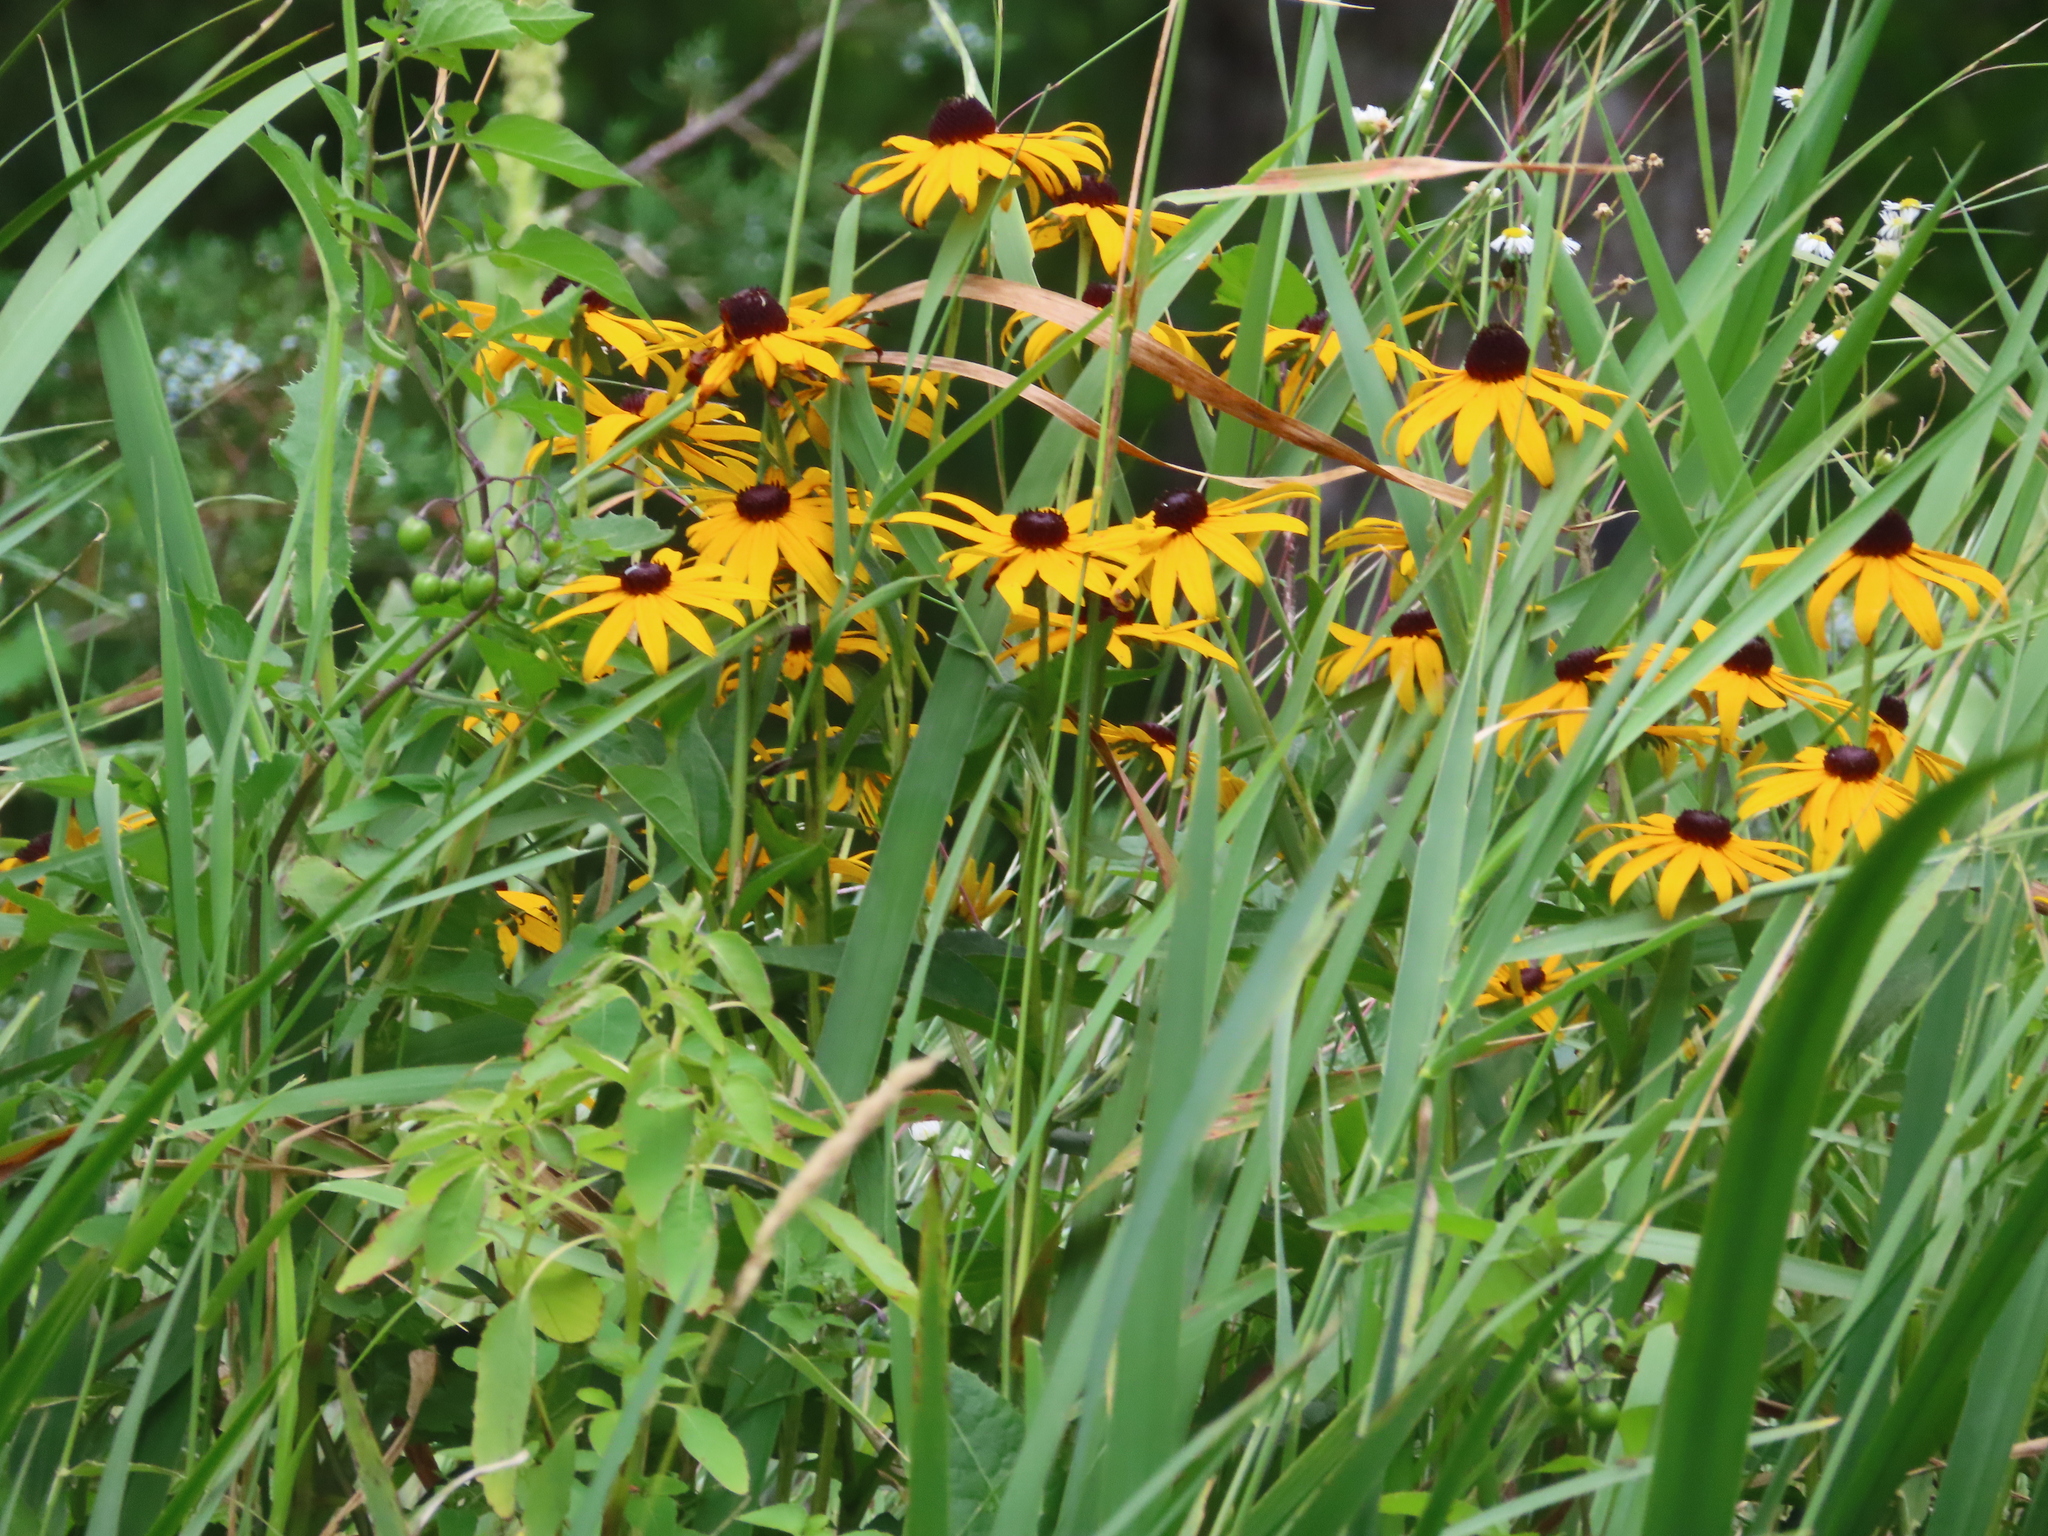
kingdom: Plantae
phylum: Tracheophyta
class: Magnoliopsida
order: Asterales
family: Asteraceae
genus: Rudbeckia
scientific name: Rudbeckia hirta
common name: Black-eyed-susan
